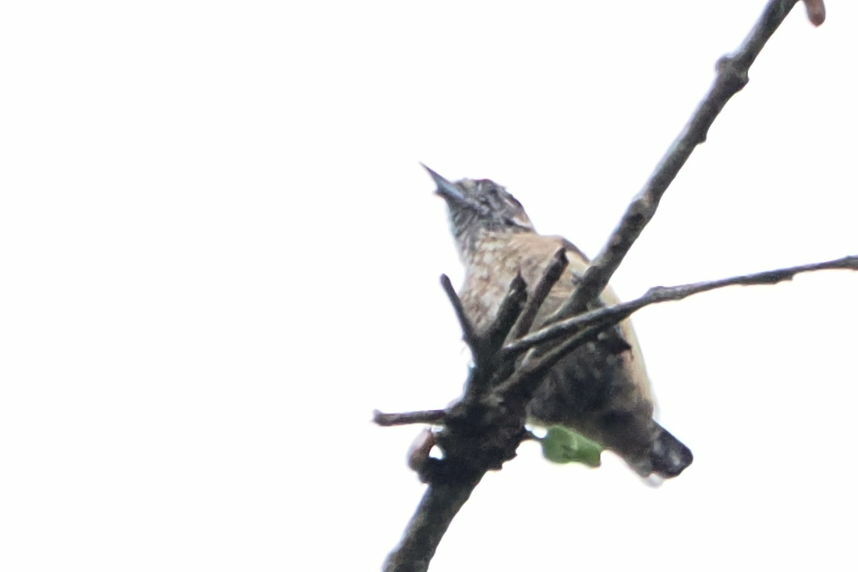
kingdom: Animalia
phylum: Chordata
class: Aves
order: Piciformes
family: Picidae
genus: Picumnus
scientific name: Picumnus limae
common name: Ochraceous piculet
